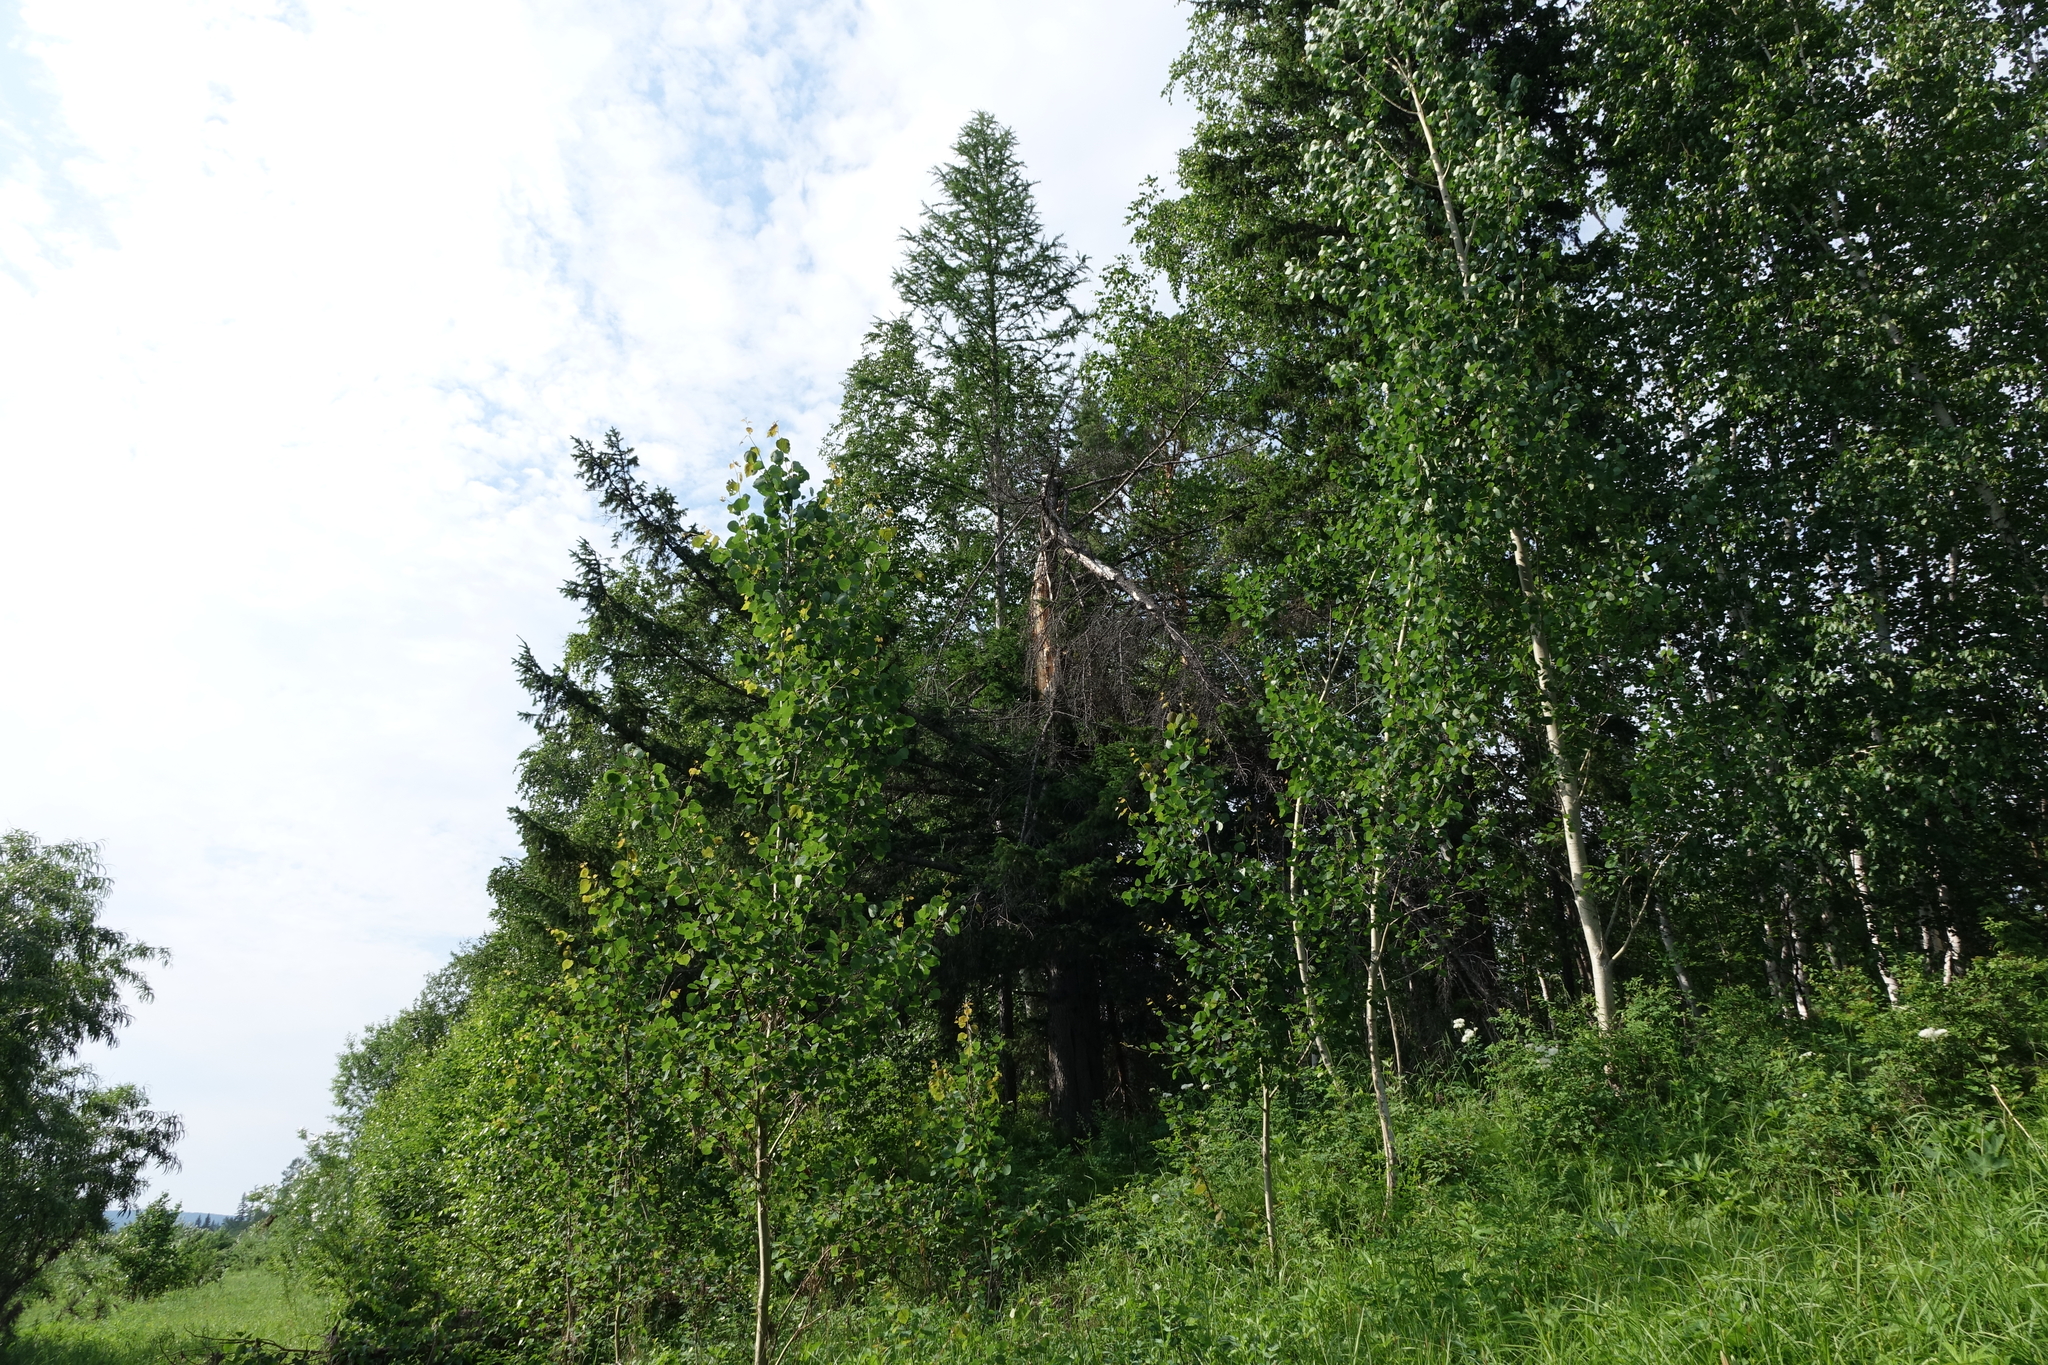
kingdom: Plantae
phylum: Tracheophyta
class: Magnoliopsida
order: Malpighiales
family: Salicaceae
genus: Populus
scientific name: Populus tremula
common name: European aspen
